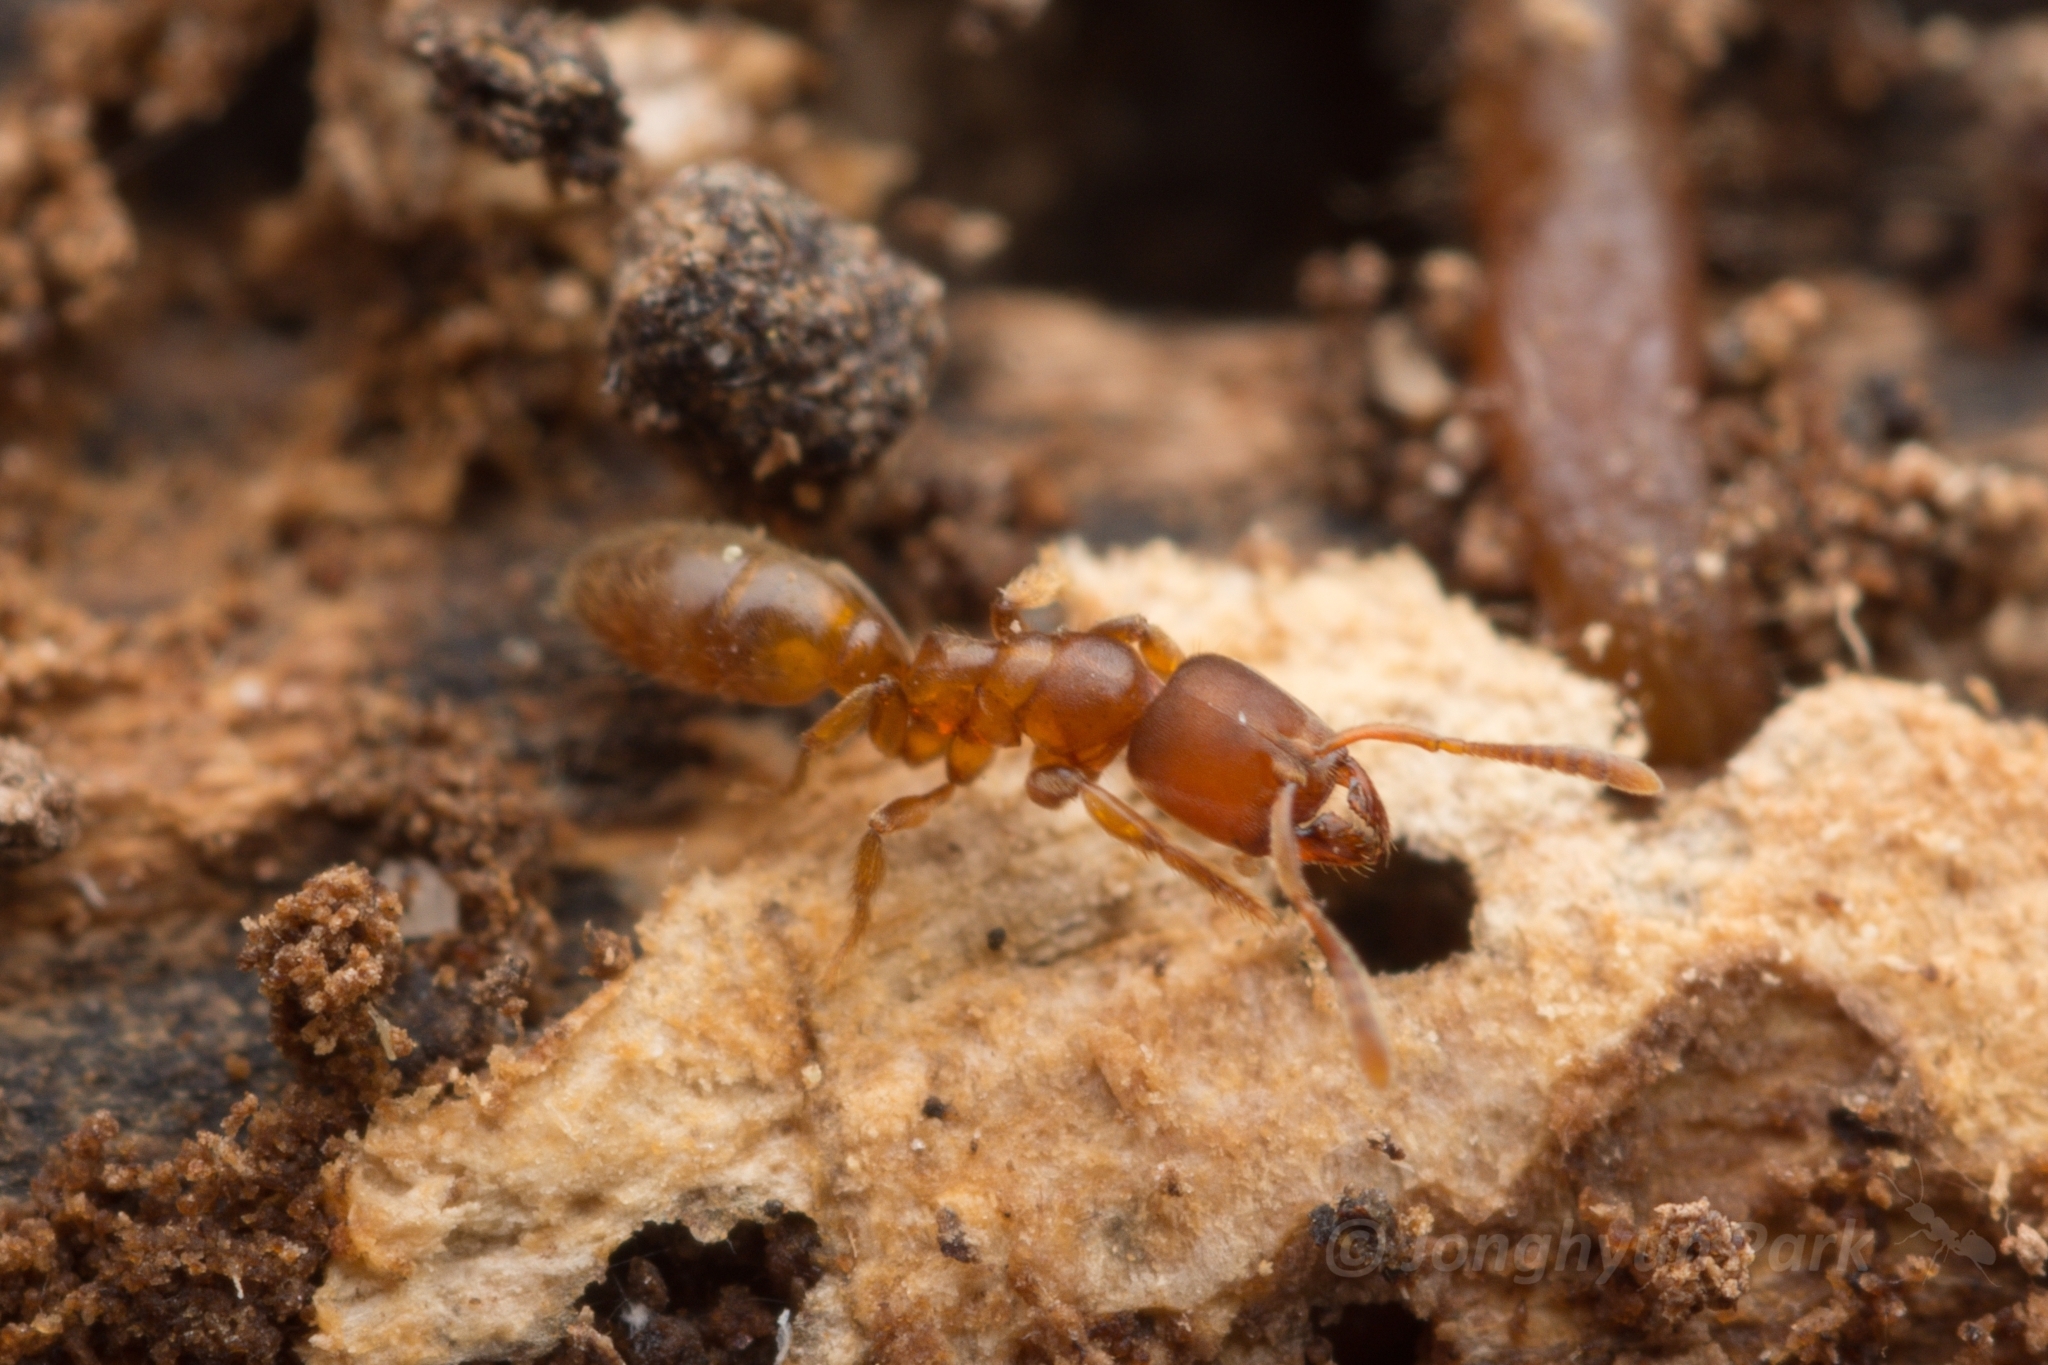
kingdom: Animalia
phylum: Arthropoda
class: Insecta
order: Hymenoptera
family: Formicidae
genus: Cryptopone
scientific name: Cryptopone sauteri
